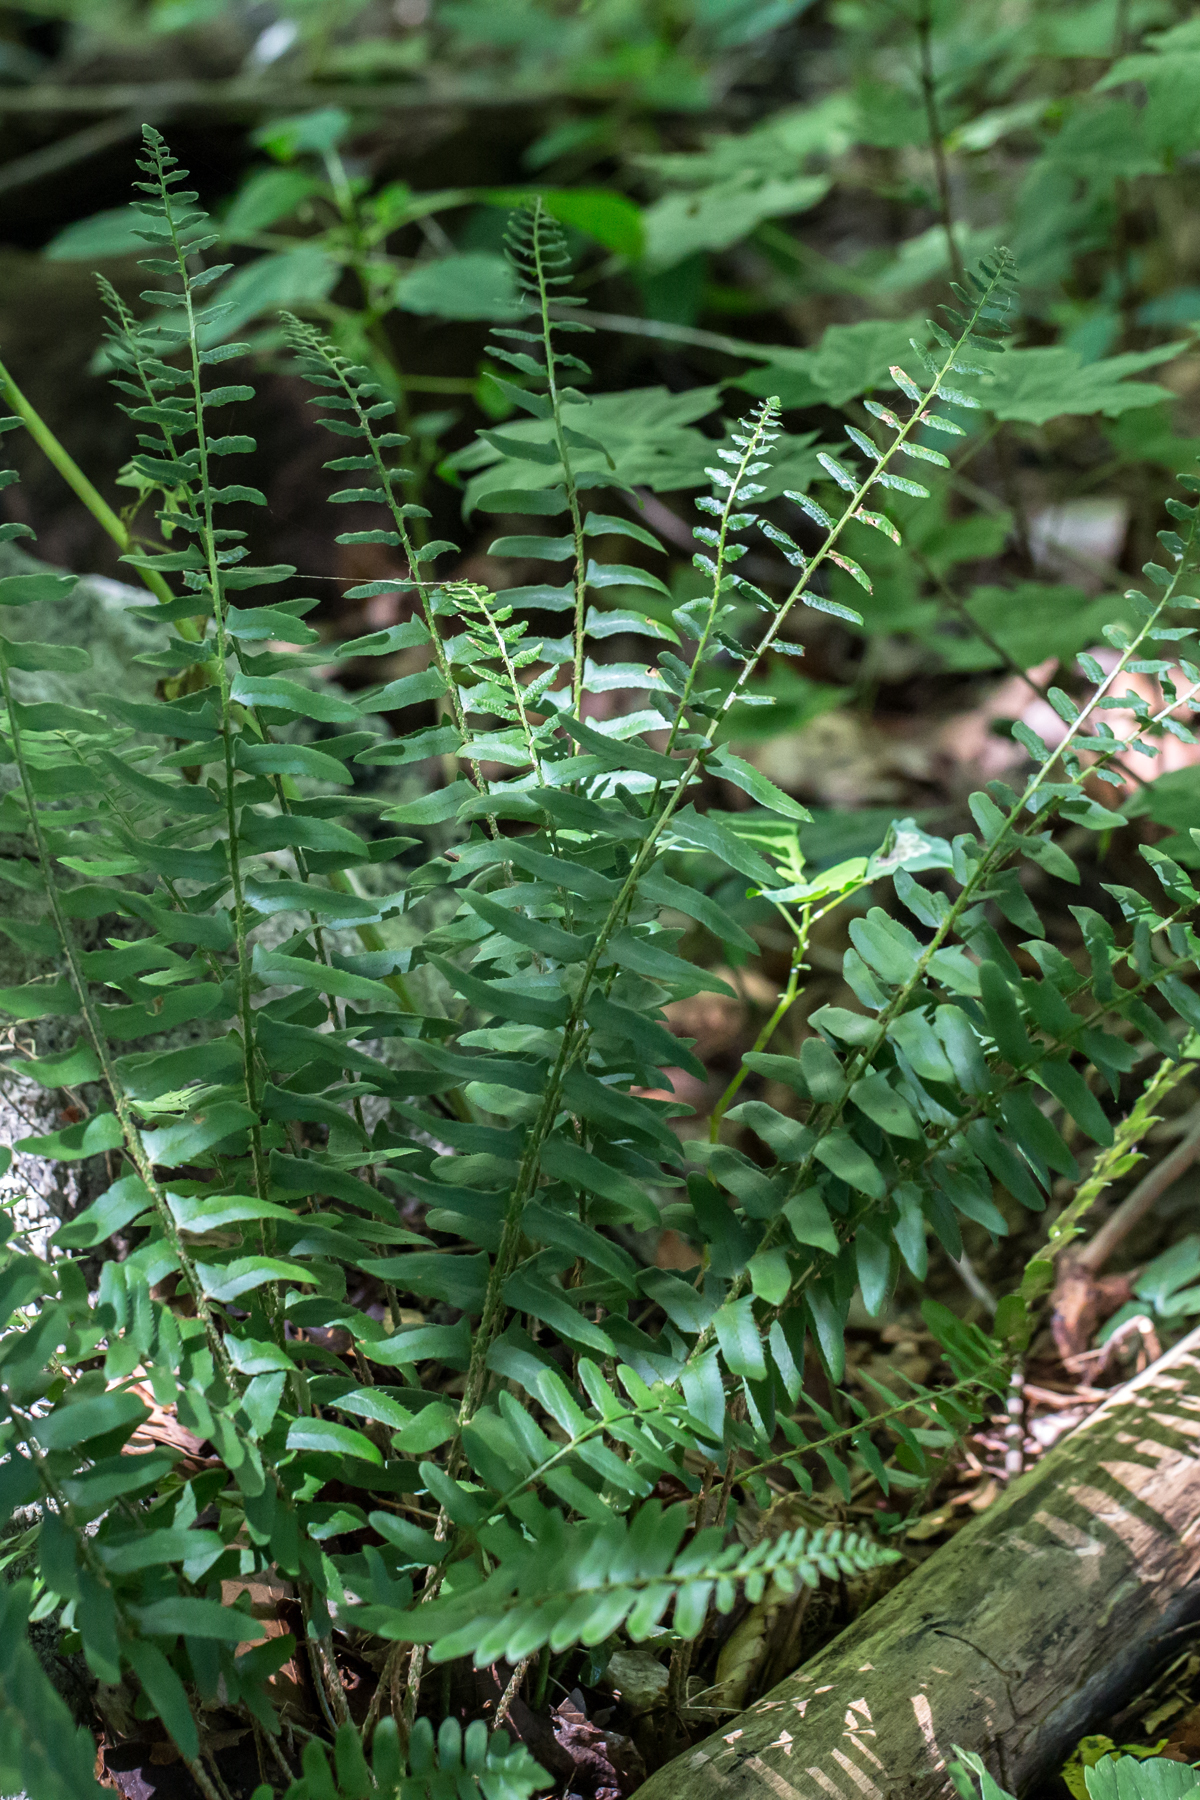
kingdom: Plantae
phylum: Tracheophyta
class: Polypodiopsida
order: Polypodiales
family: Dryopteridaceae
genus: Polystichum
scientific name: Polystichum acrostichoides
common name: Christmas fern
